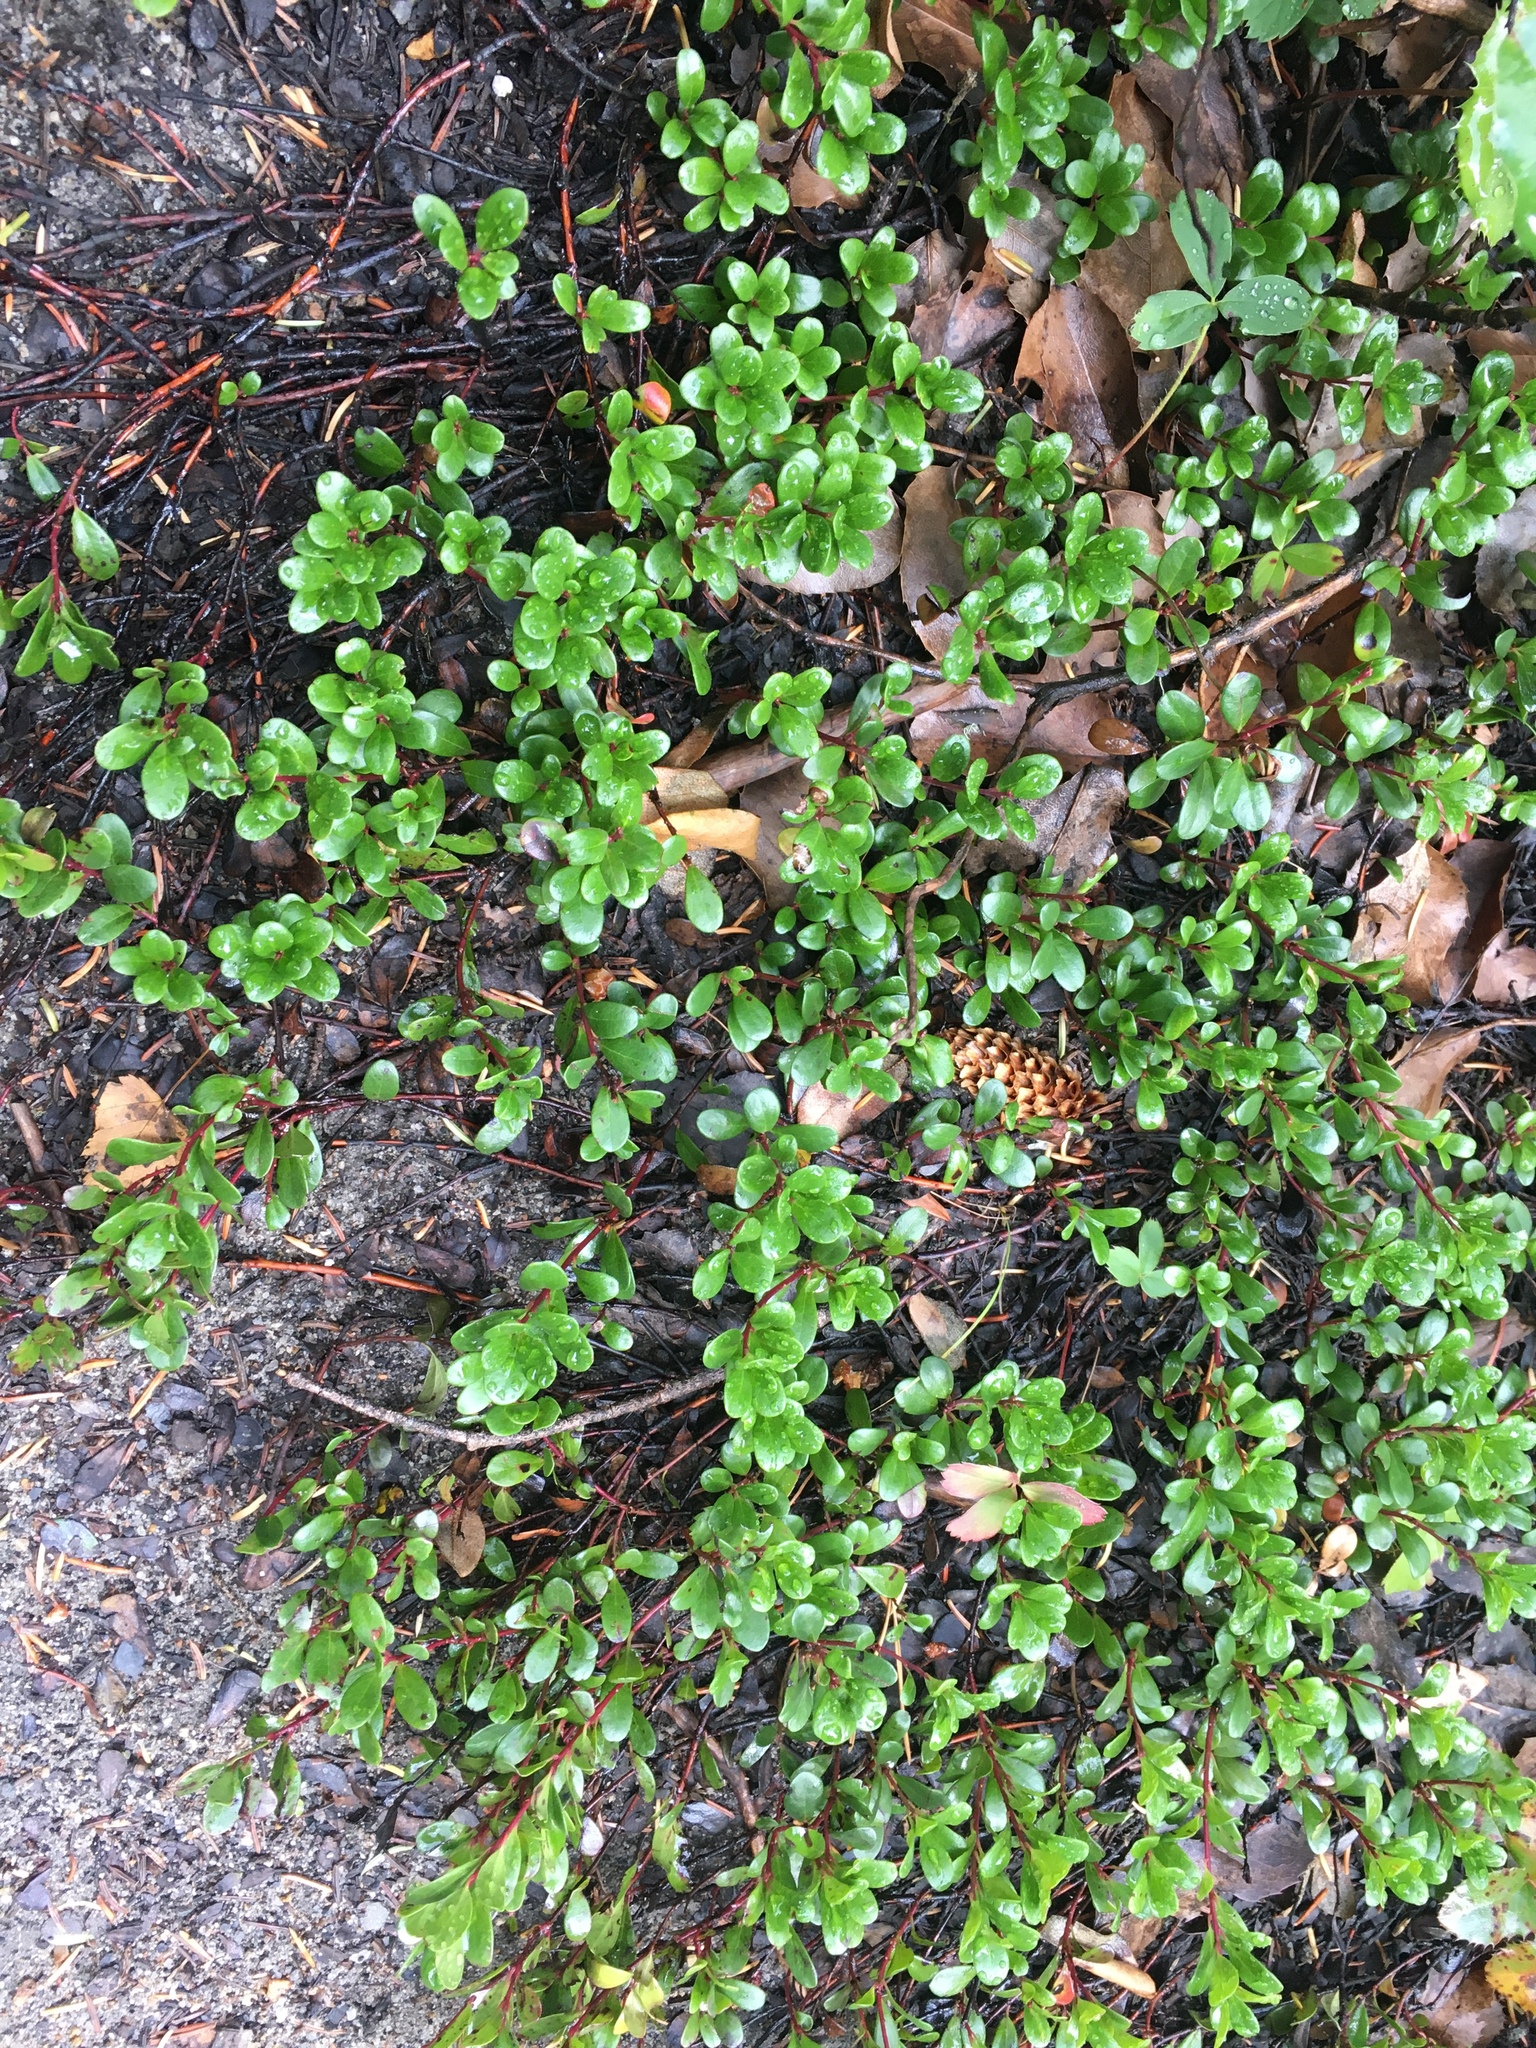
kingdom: Plantae
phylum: Tracheophyta
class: Magnoliopsida
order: Ericales
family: Ericaceae
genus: Arctostaphylos
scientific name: Arctostaphylos uva-ursi
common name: Bearberry
